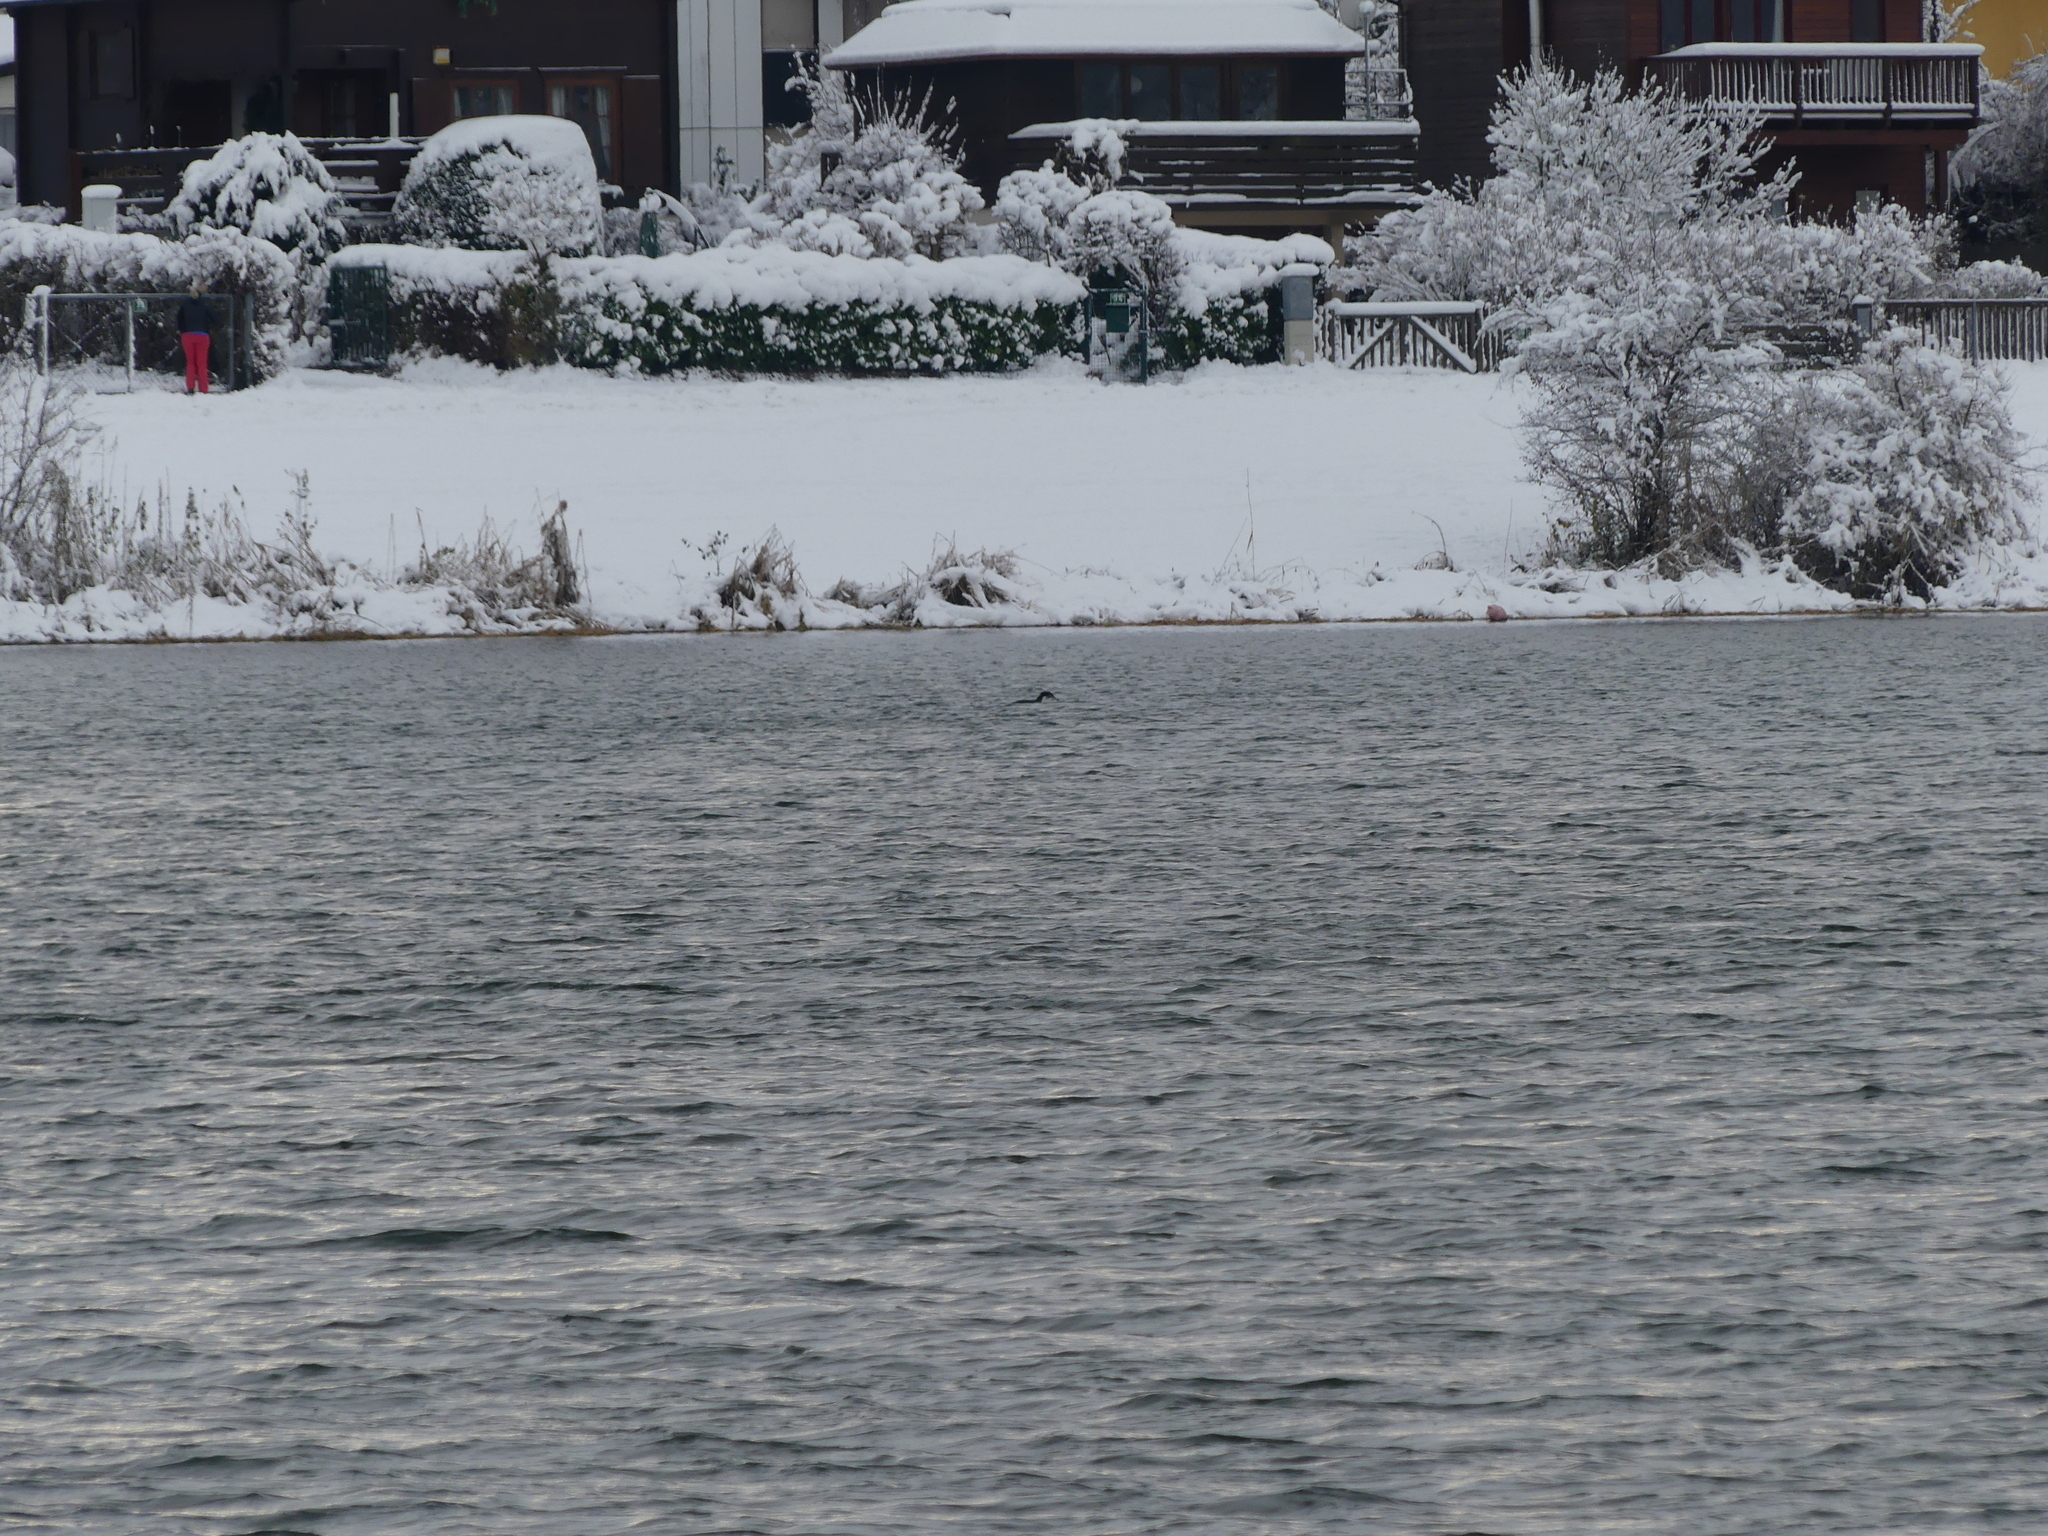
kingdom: Animalia
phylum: Chordata
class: Aves
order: Suliformes
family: Phalacrocoracidae
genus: Phalacrocorax
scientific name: Phalacrocorax carbo
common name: Great cormorant
